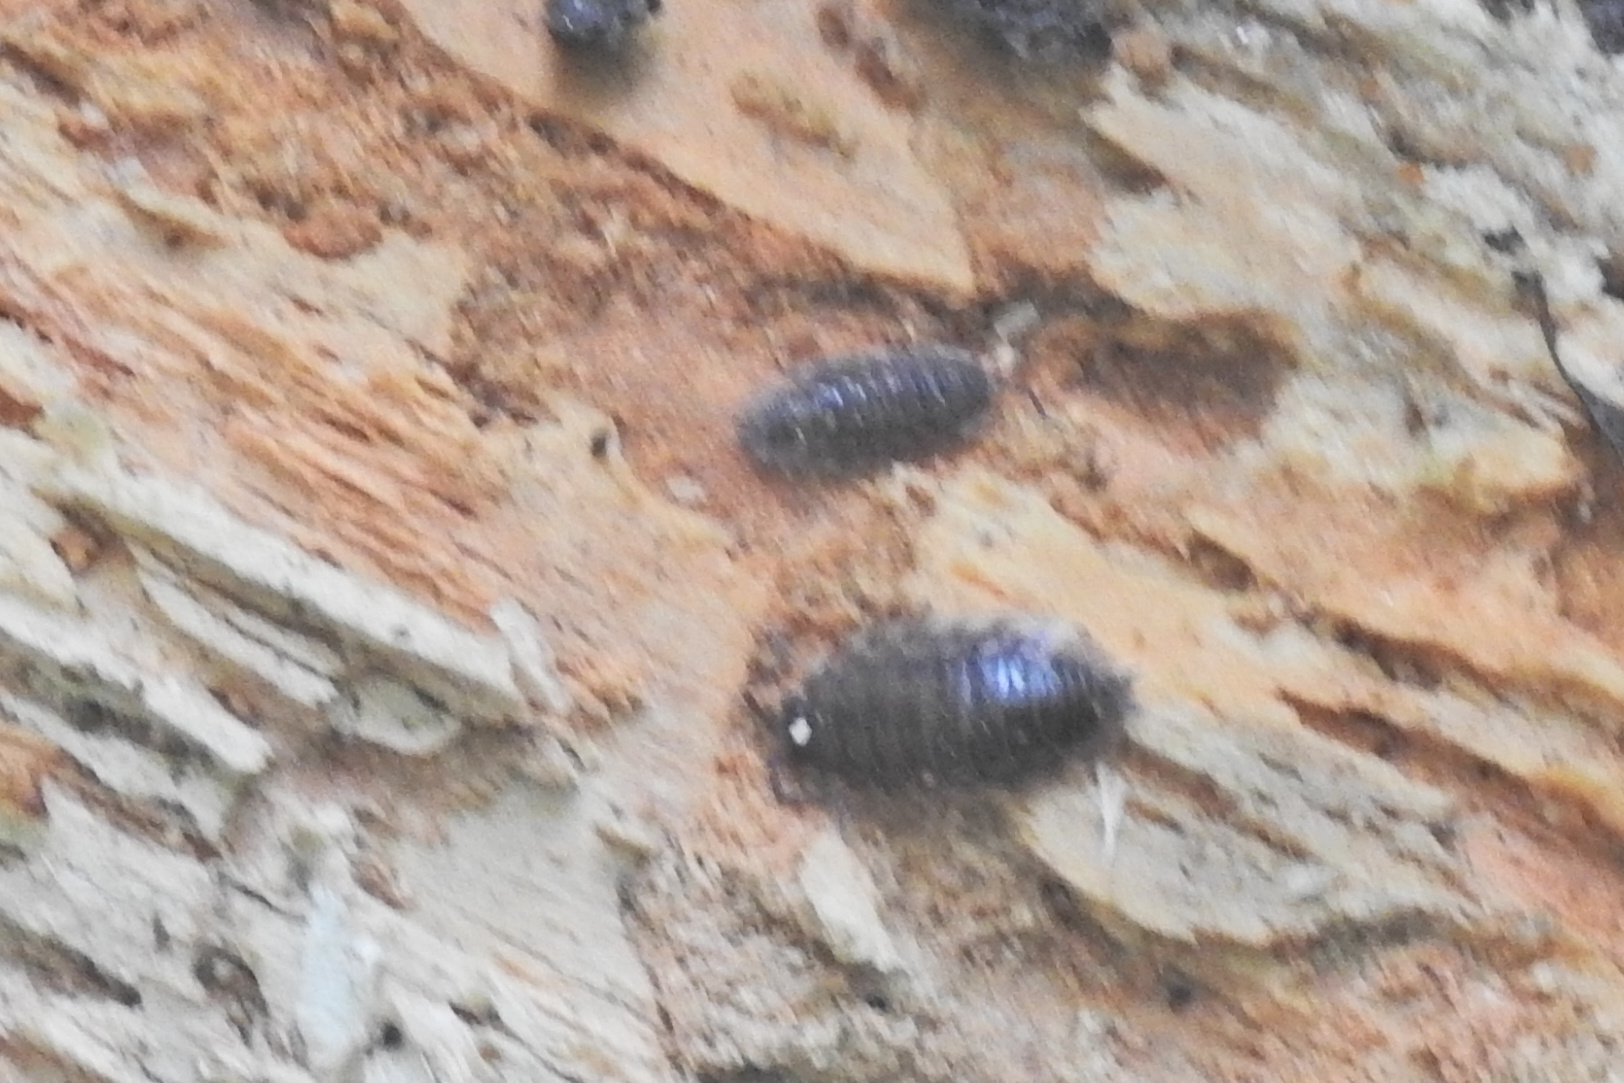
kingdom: Animalia
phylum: Arthropoda
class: Malacostraca
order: Isopoda
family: Oniscidae
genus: Oniscus
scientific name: Oniscus asellus
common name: Common shiny woodlouse
